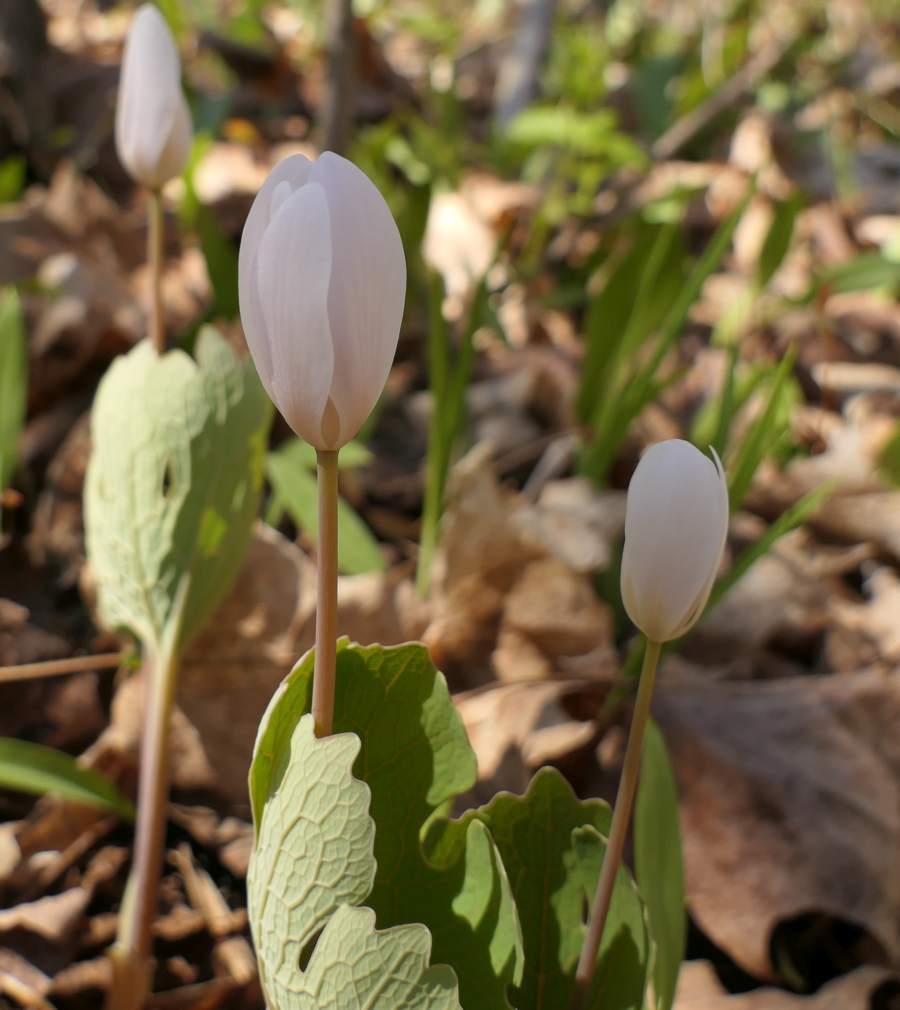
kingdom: Plantae
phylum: Tracheophyta
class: Magnoliopsida
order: Ranunculales
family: Papaveraceae
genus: Sanguinaria
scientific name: Sanguinaria canadensis
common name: Bloodroot
